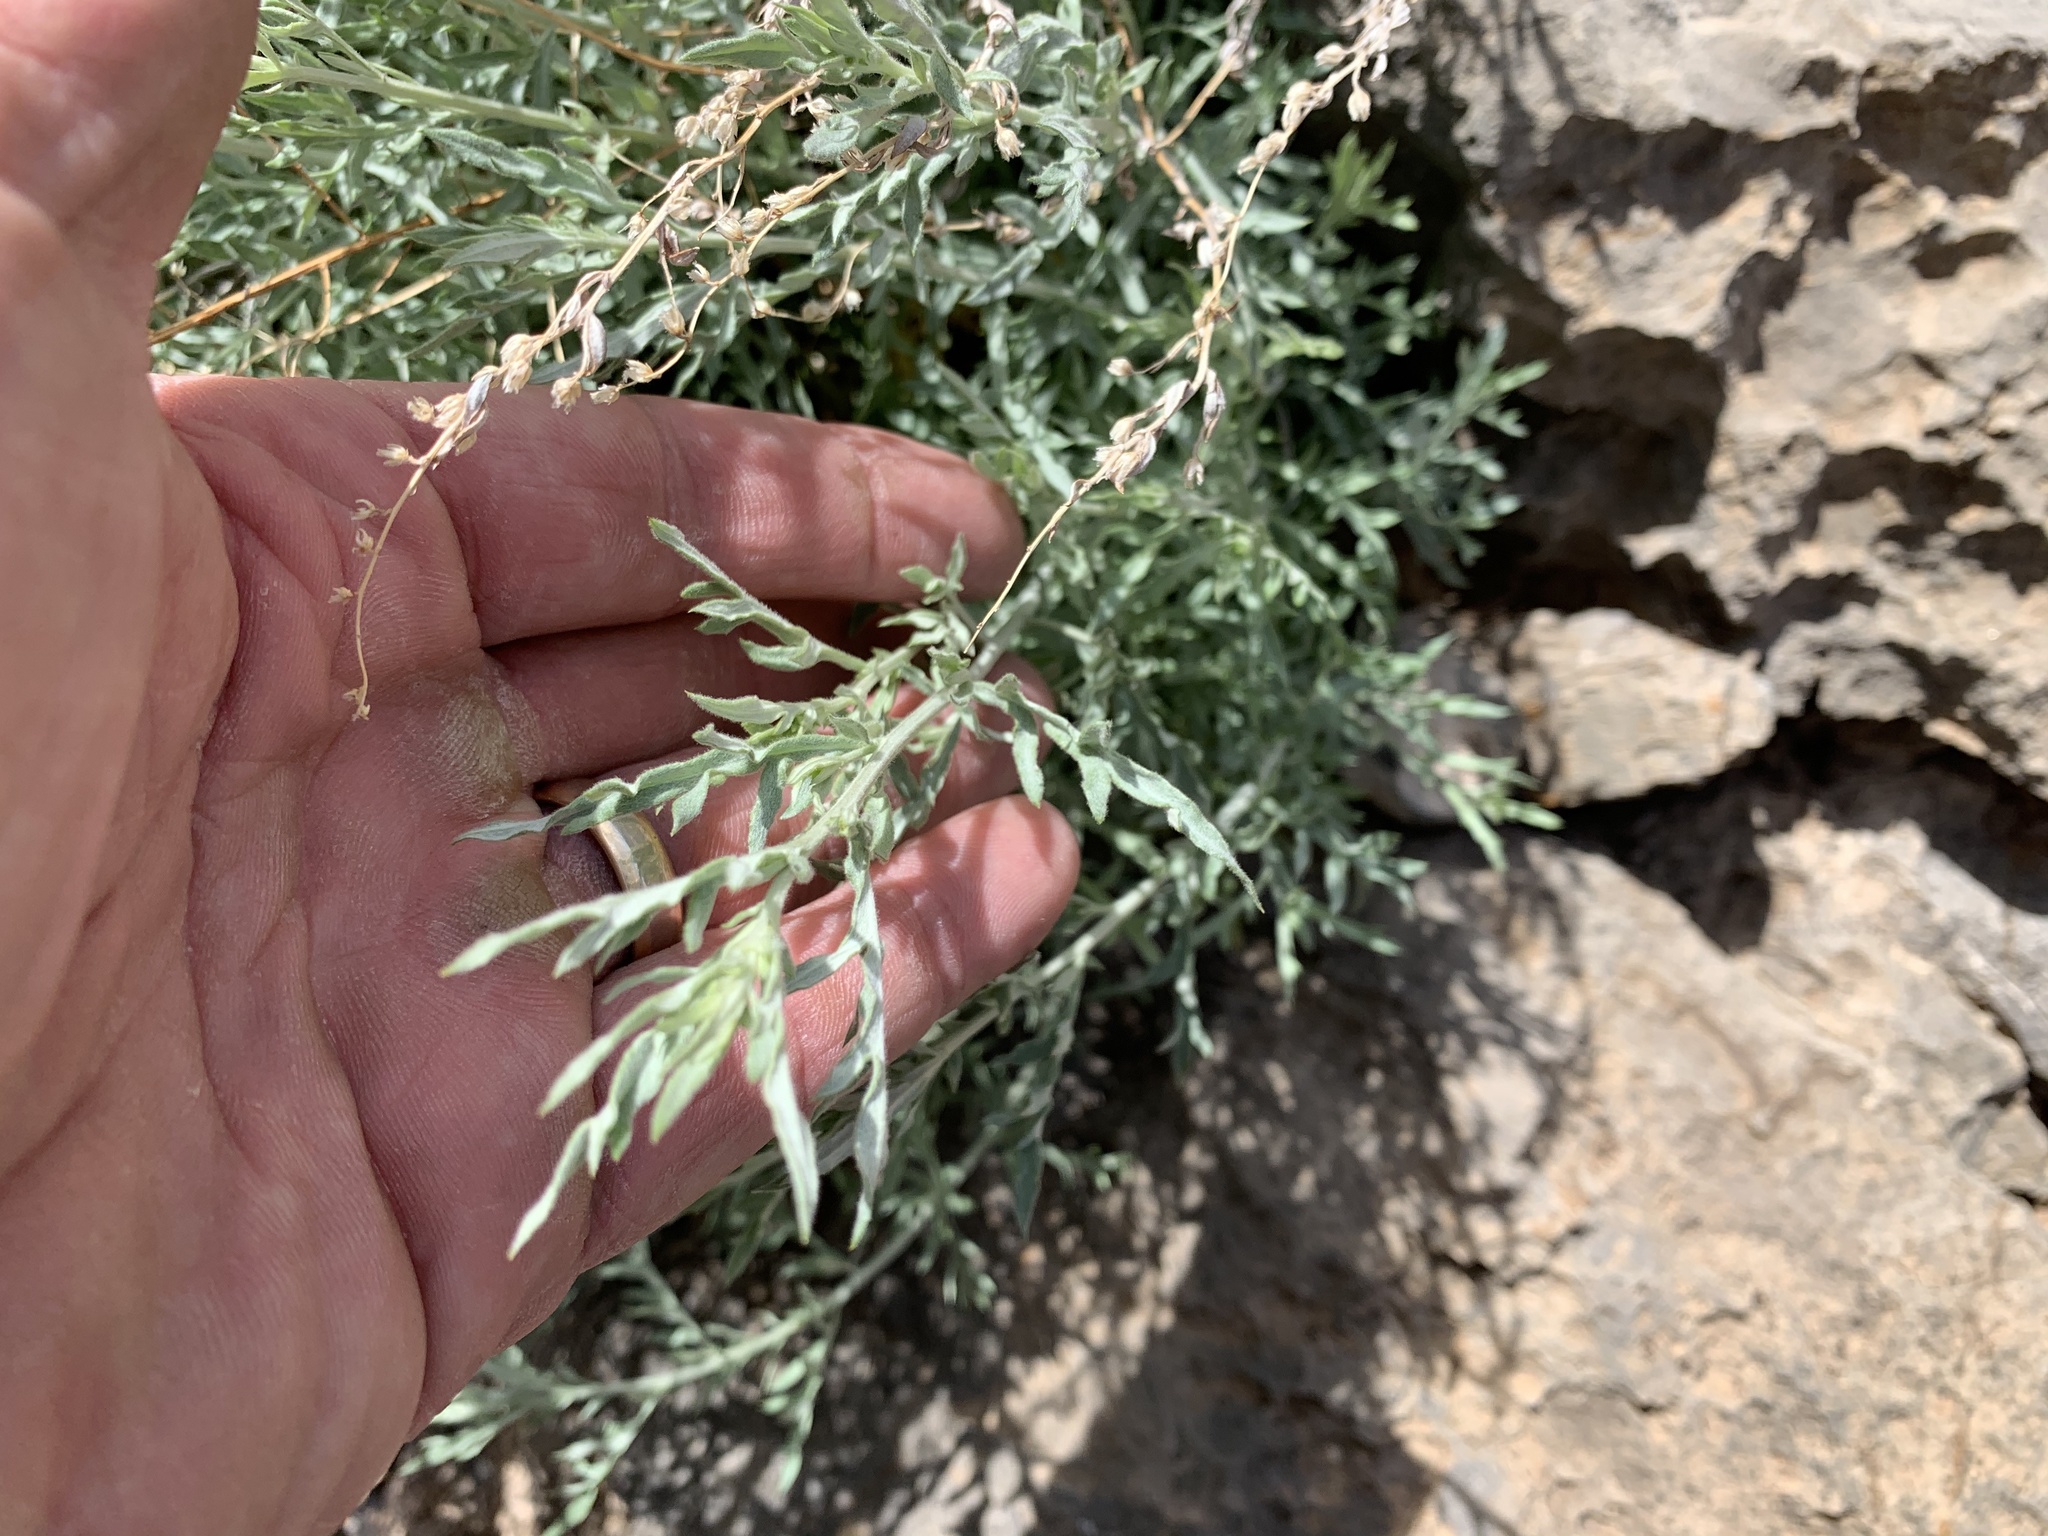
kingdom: Plantae
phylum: Tracheophyta
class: Magnoliopsida
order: Asterales
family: Asteraceae
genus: Artemisia
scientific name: Artemisia ludoviciana
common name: Western mugwort
